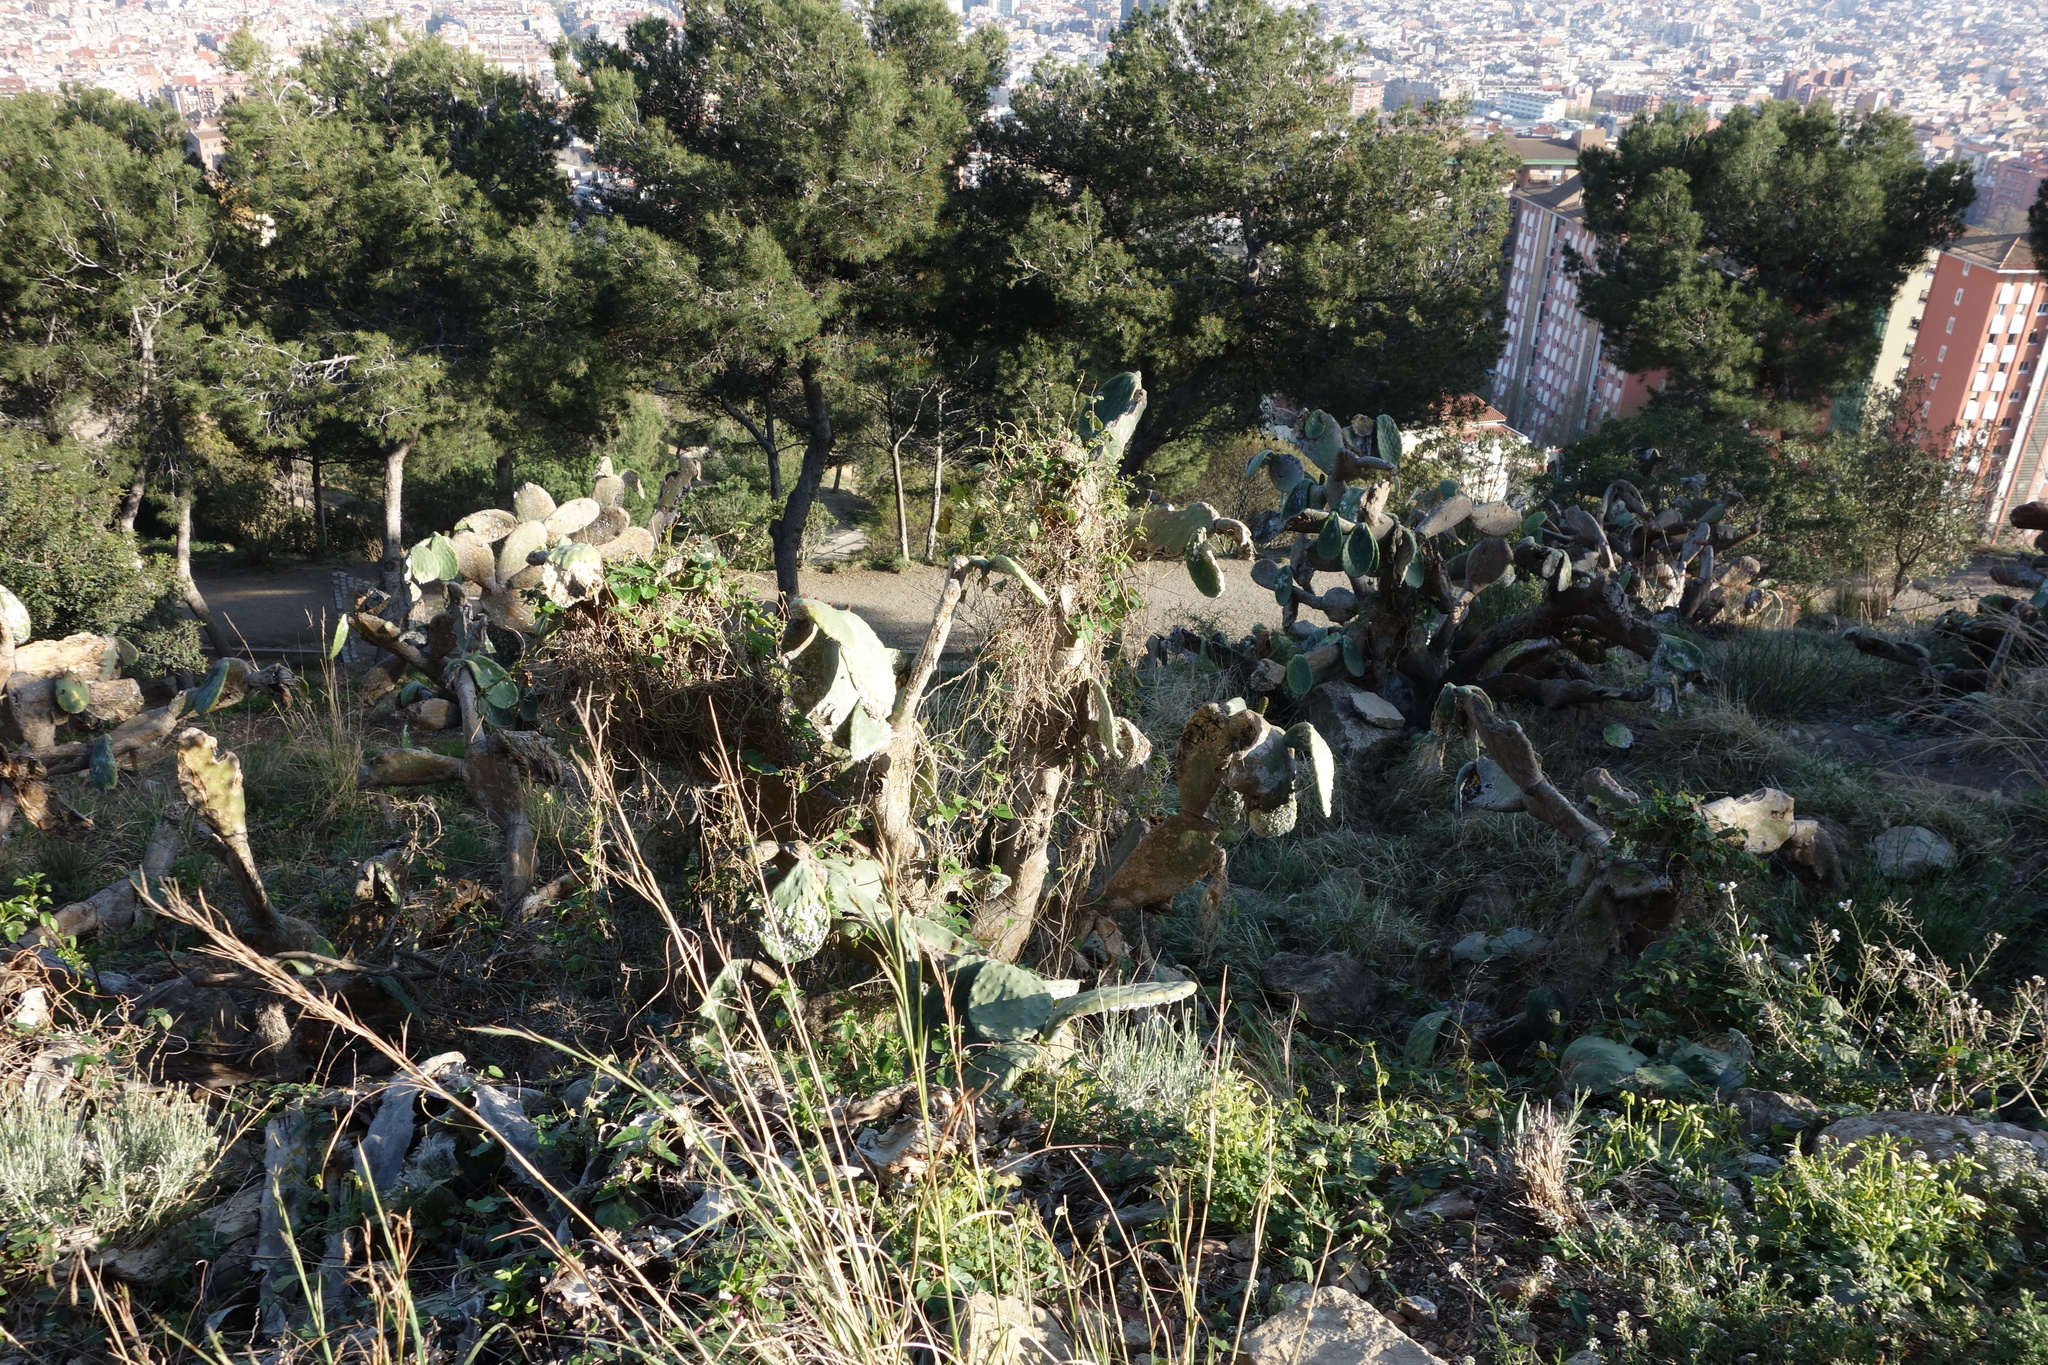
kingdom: Plantae
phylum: Tracheophyta
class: Magnoliopsida
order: Caryophyllales
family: Cactaceae
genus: Opuntia
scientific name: Opuntia ficus-indica
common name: Barbary fig
